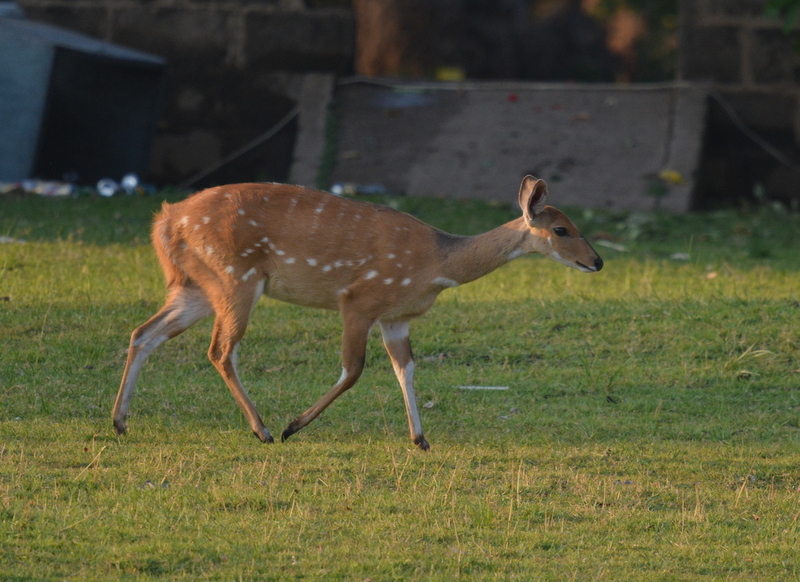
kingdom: Animalia
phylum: Chordata
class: Mammalia
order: Artiodactyla
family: Bovidae
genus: Tragelaphus
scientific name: Tragelaphus scriptus
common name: Bushbuck
